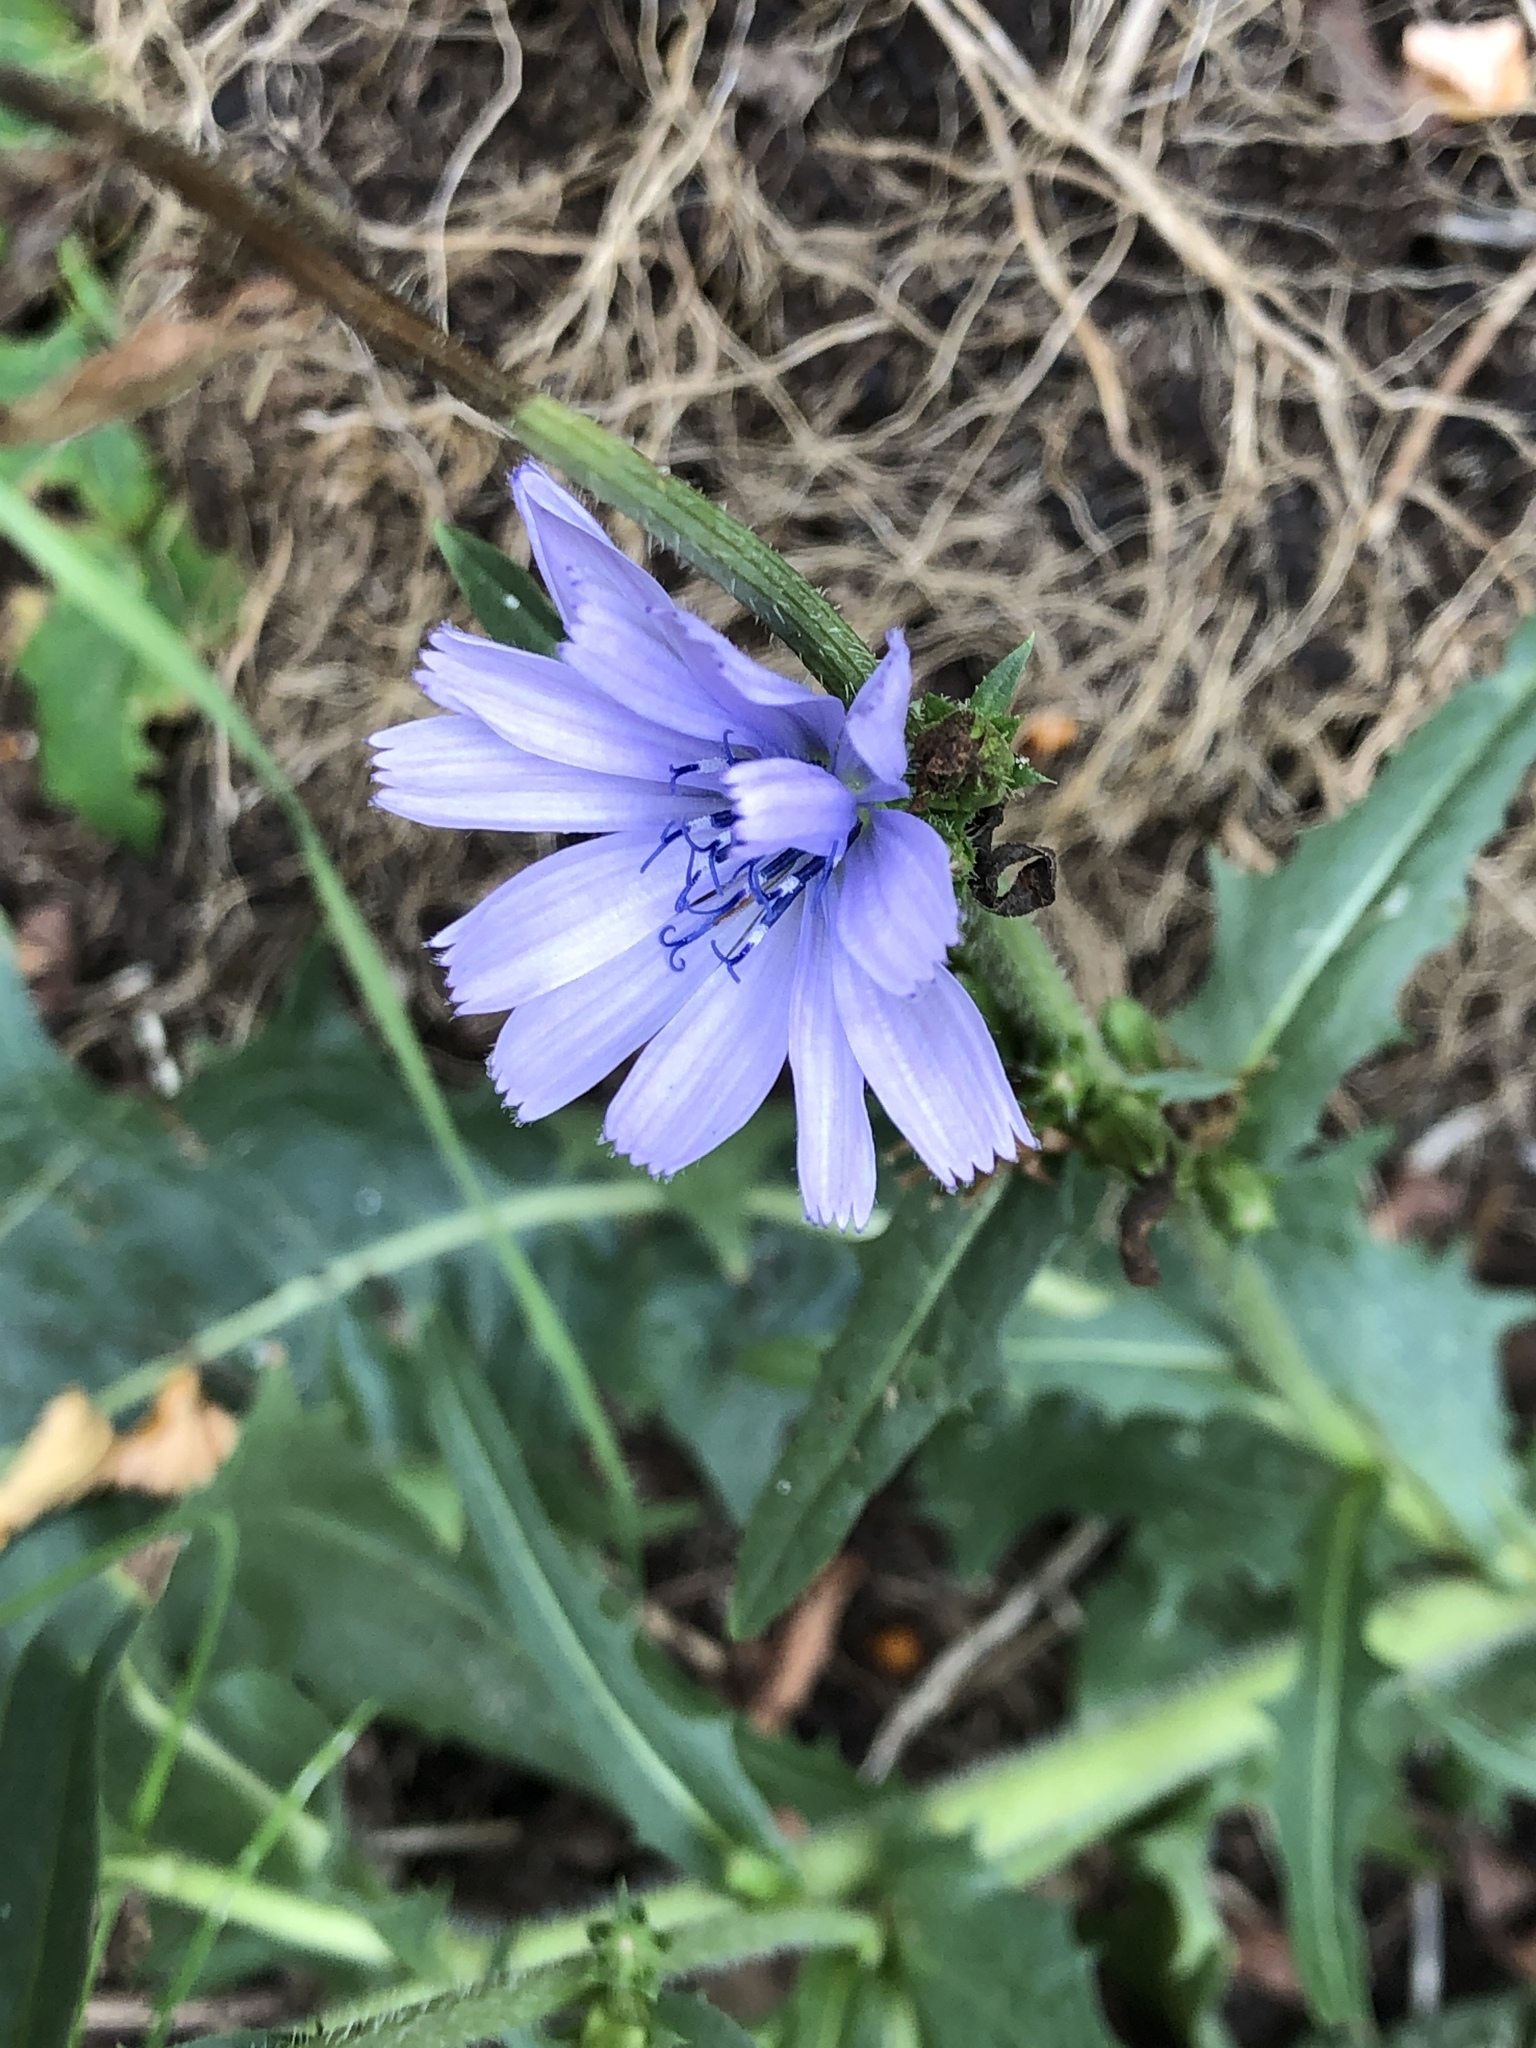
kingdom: Plantae
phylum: Tracheophyta
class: Magnoliopsida
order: Asterales
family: Asteraceae
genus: Cichorium
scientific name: Cichorium intybus
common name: Chicory
